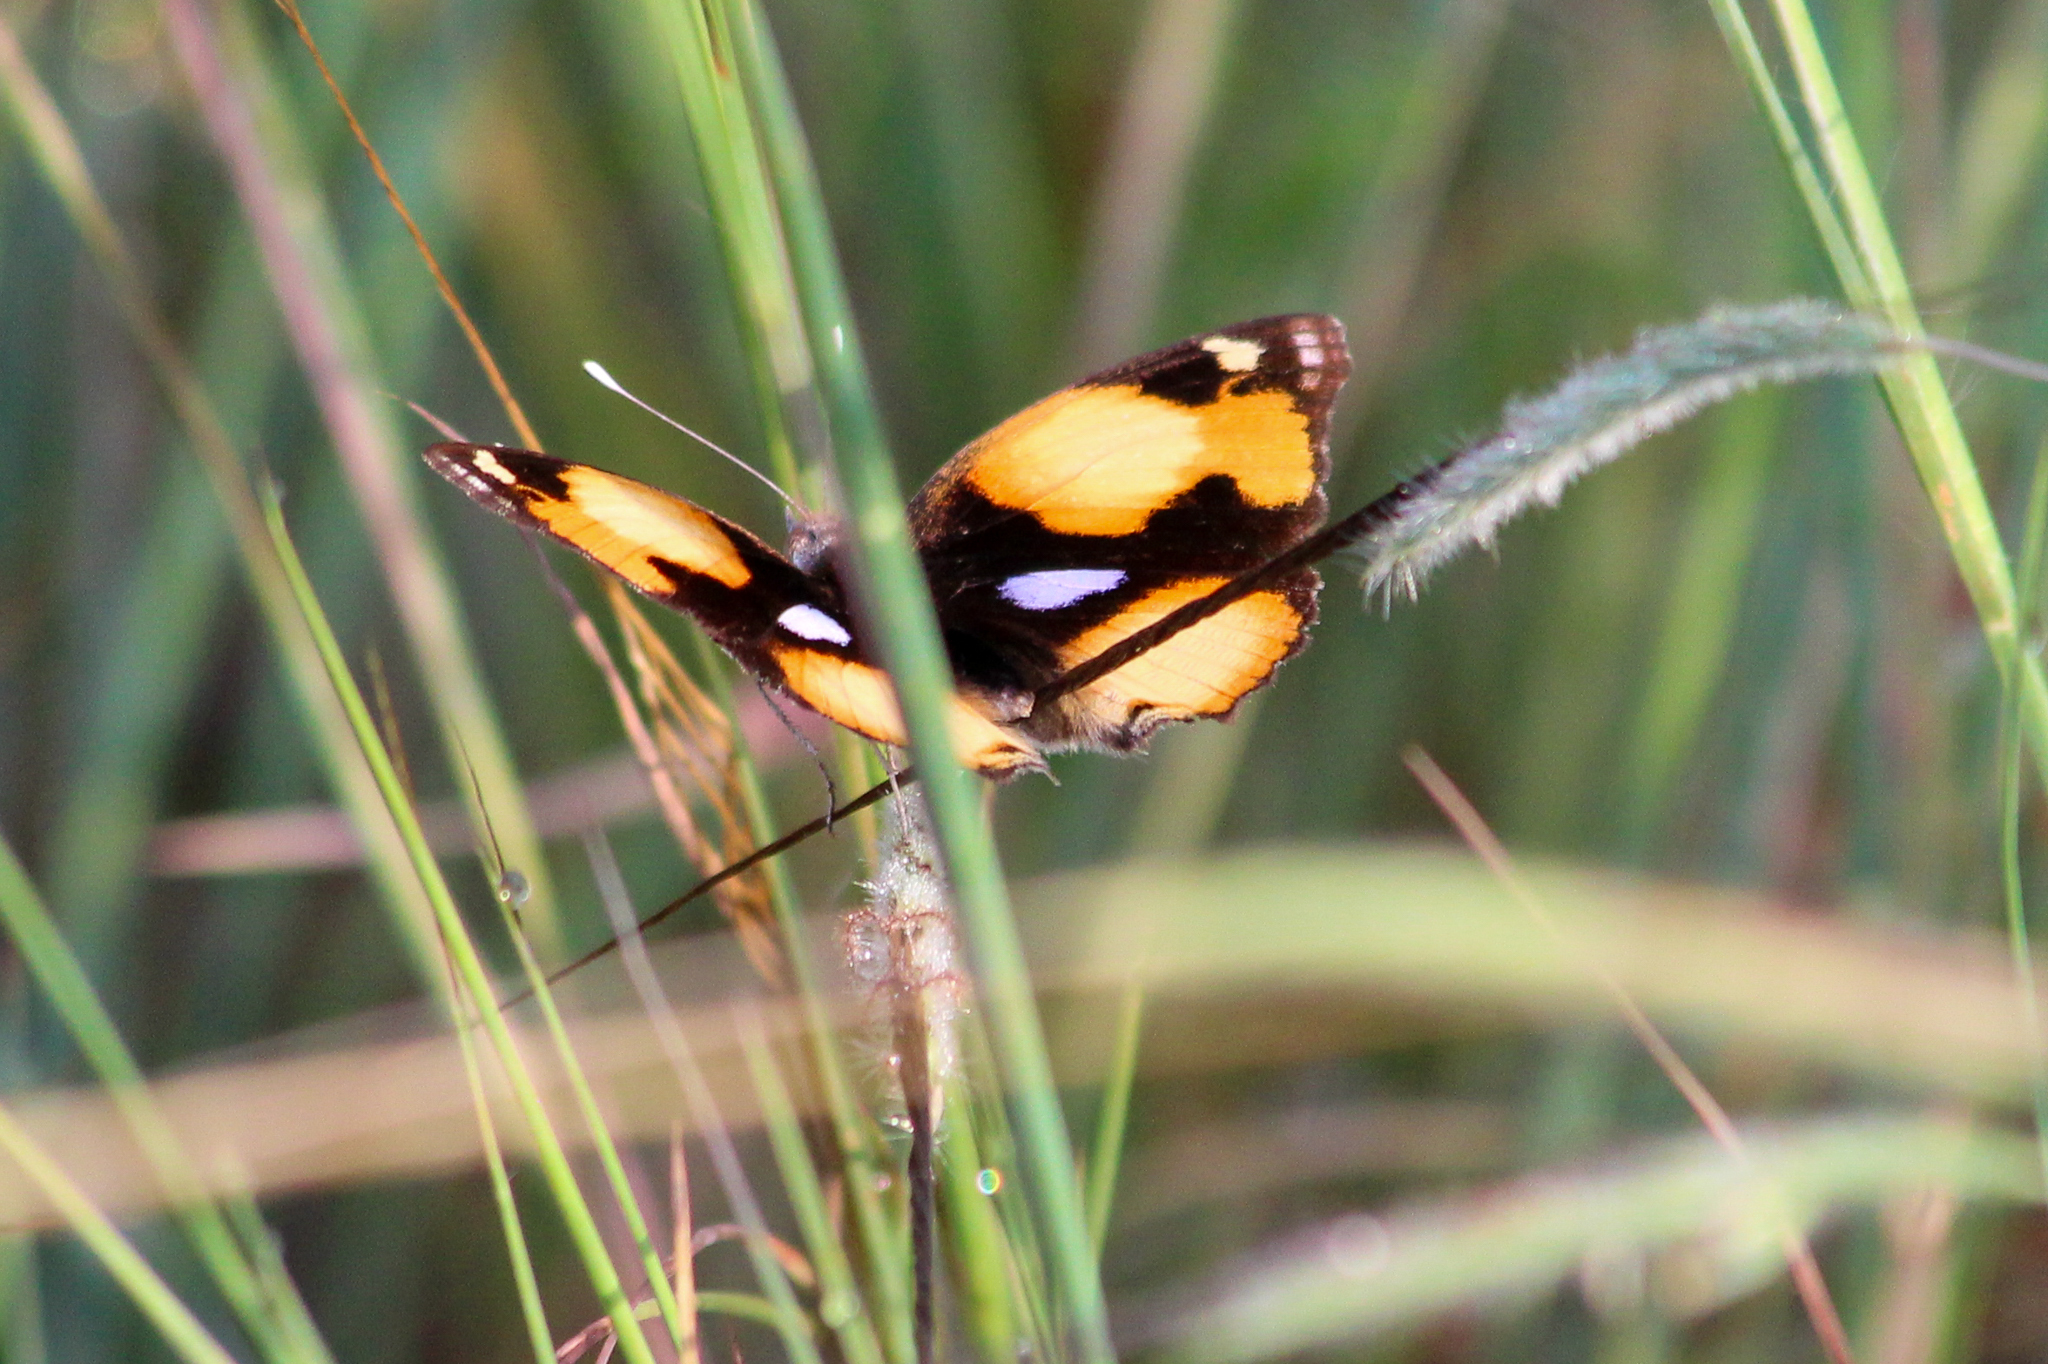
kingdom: Animalia
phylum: Arthropoda
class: Insecta
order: Lepidoptera
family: Nymphalidae
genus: Junonia
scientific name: Junonia hierta
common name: Yellow pansy
